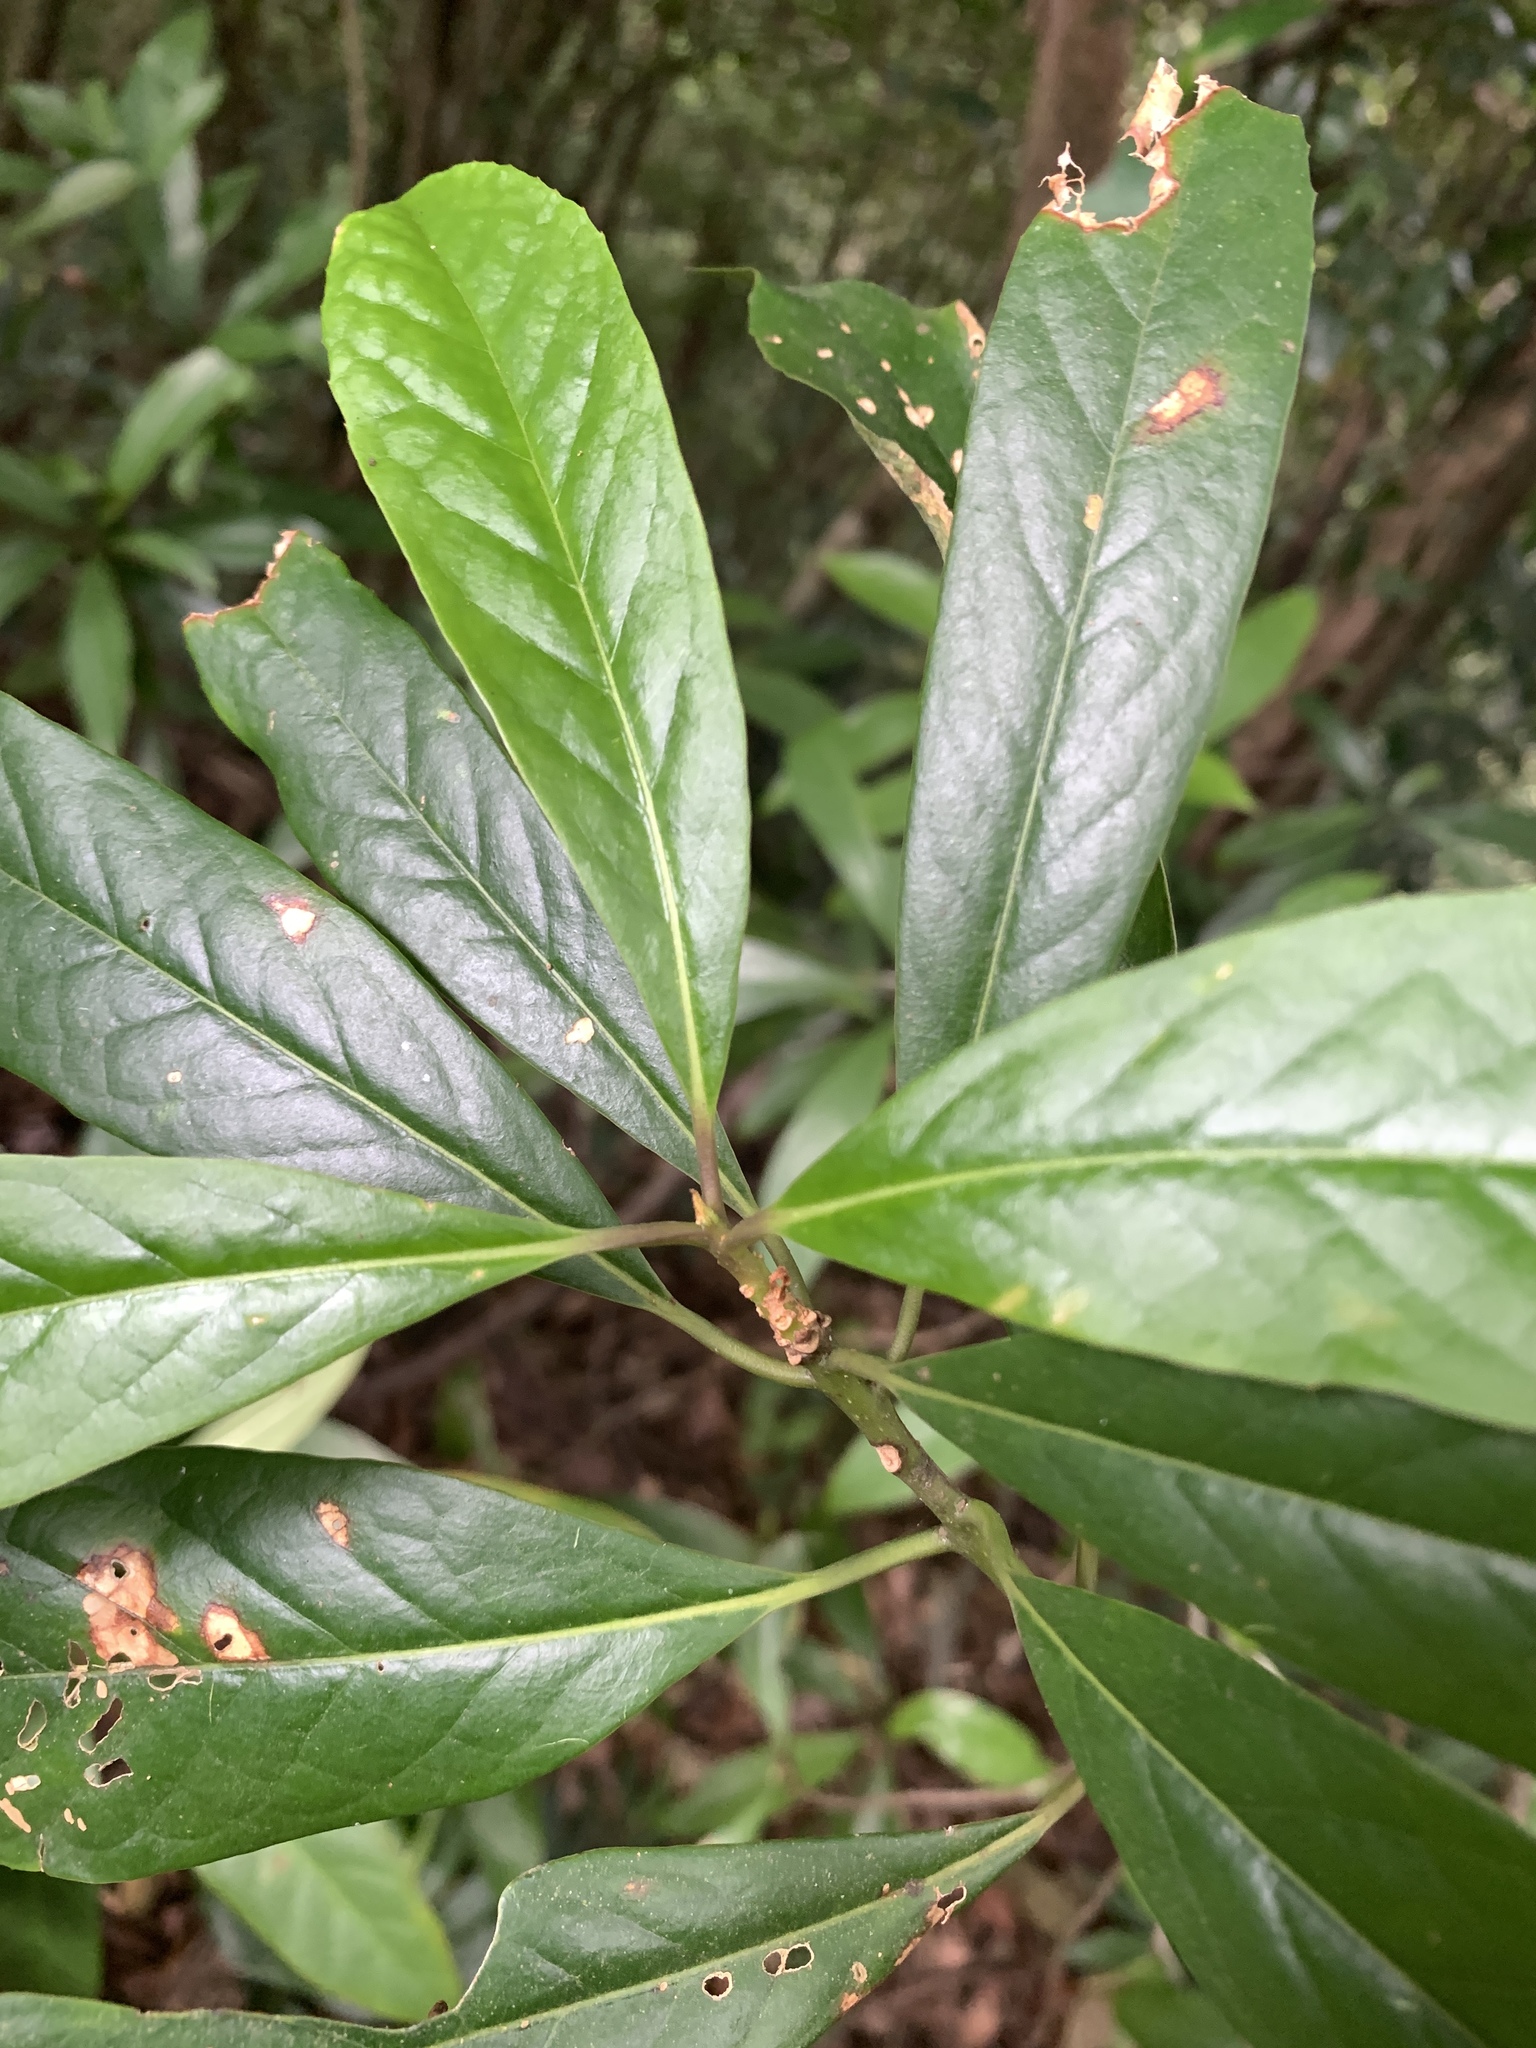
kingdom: Plantae
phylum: Tracheophyta
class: Magnoliopsida
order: Ericales
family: Symplocaceae
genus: Symplocos
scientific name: Symplocos glauca
